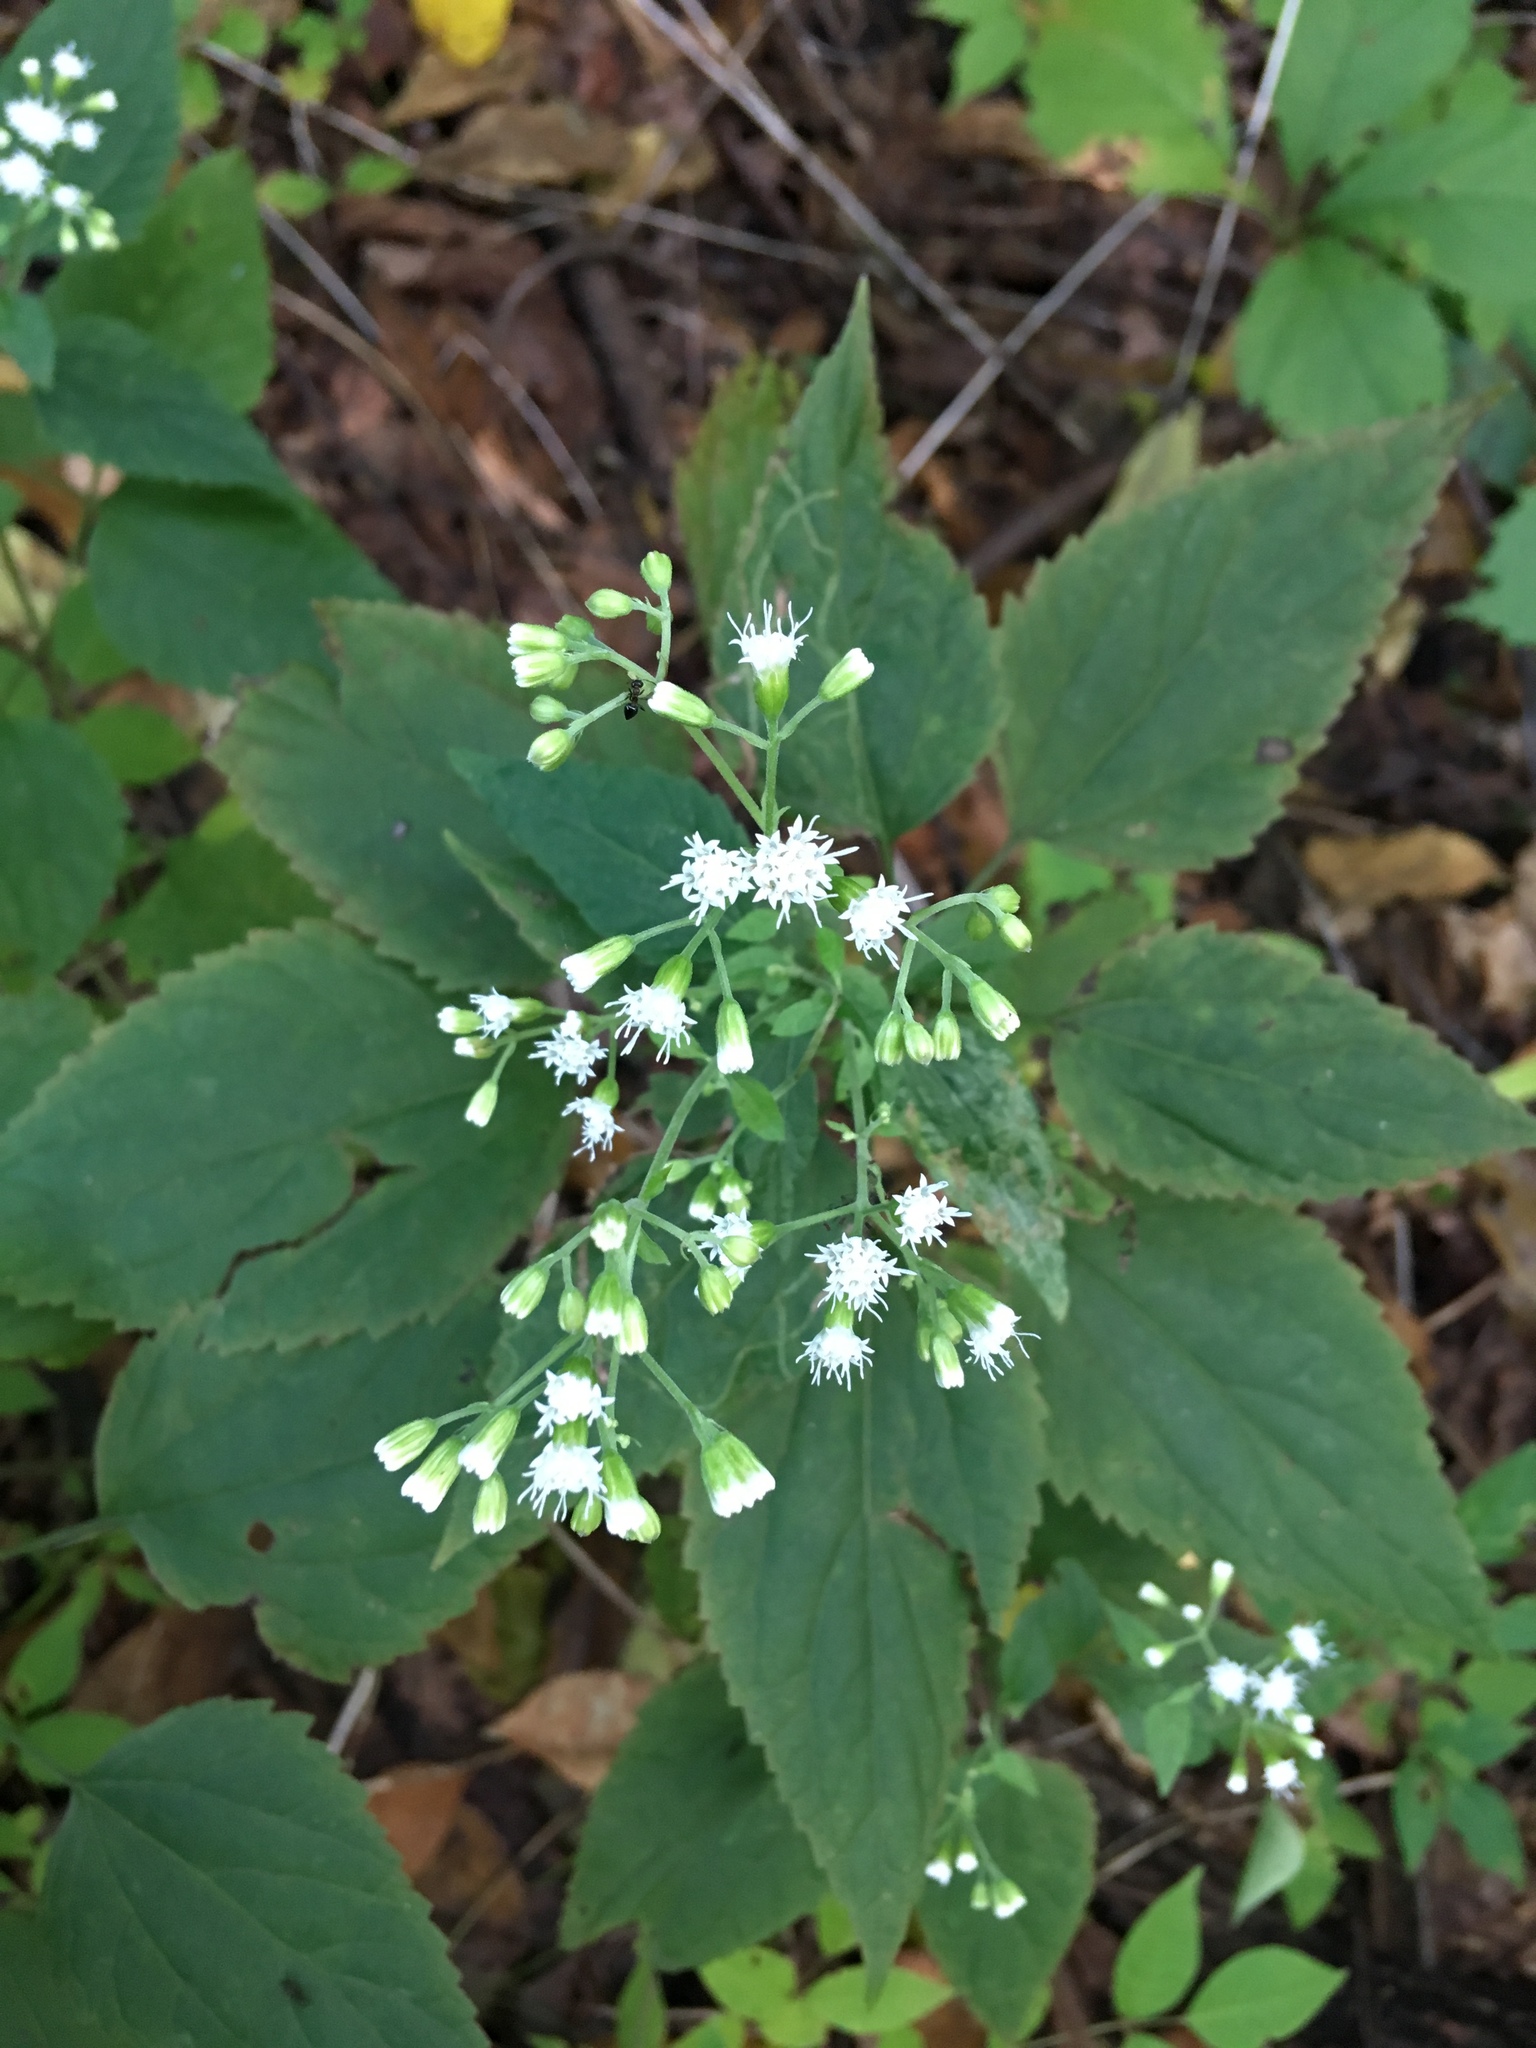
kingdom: Plantae
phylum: Tracheophyta
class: Magnoliopsida
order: Asterales
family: Asteraceae
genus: Ageratina
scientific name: Ageratina altissima
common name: White snakeroot
